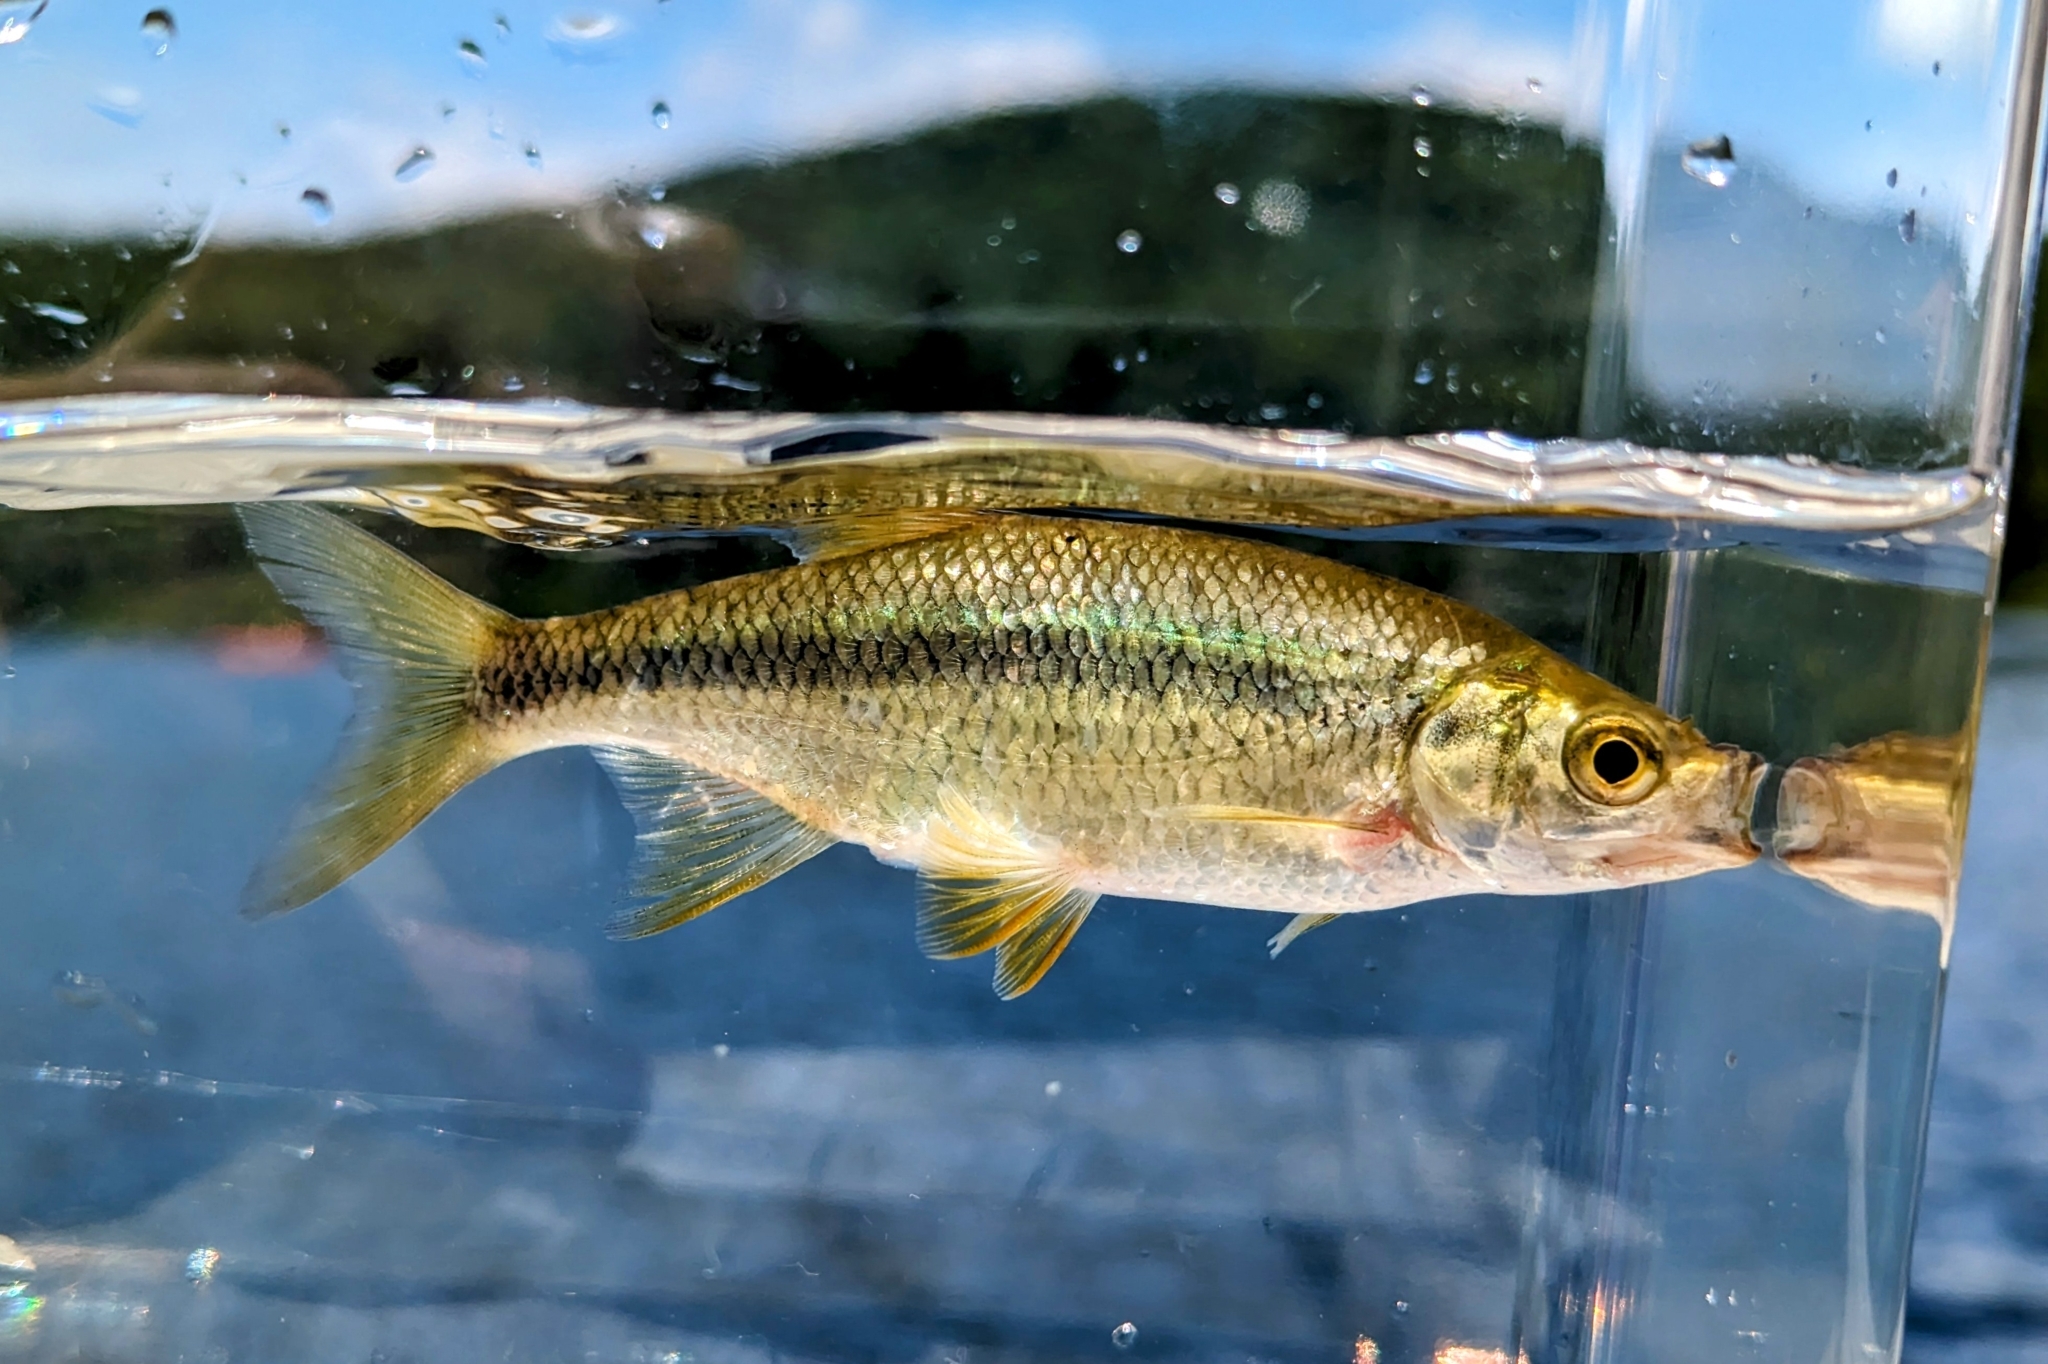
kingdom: Animalia
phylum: Chordata
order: Cypriniformes
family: Cyprinidae
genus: Notemigonus
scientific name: Notemigonus crysoleucas
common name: Golden shiner
